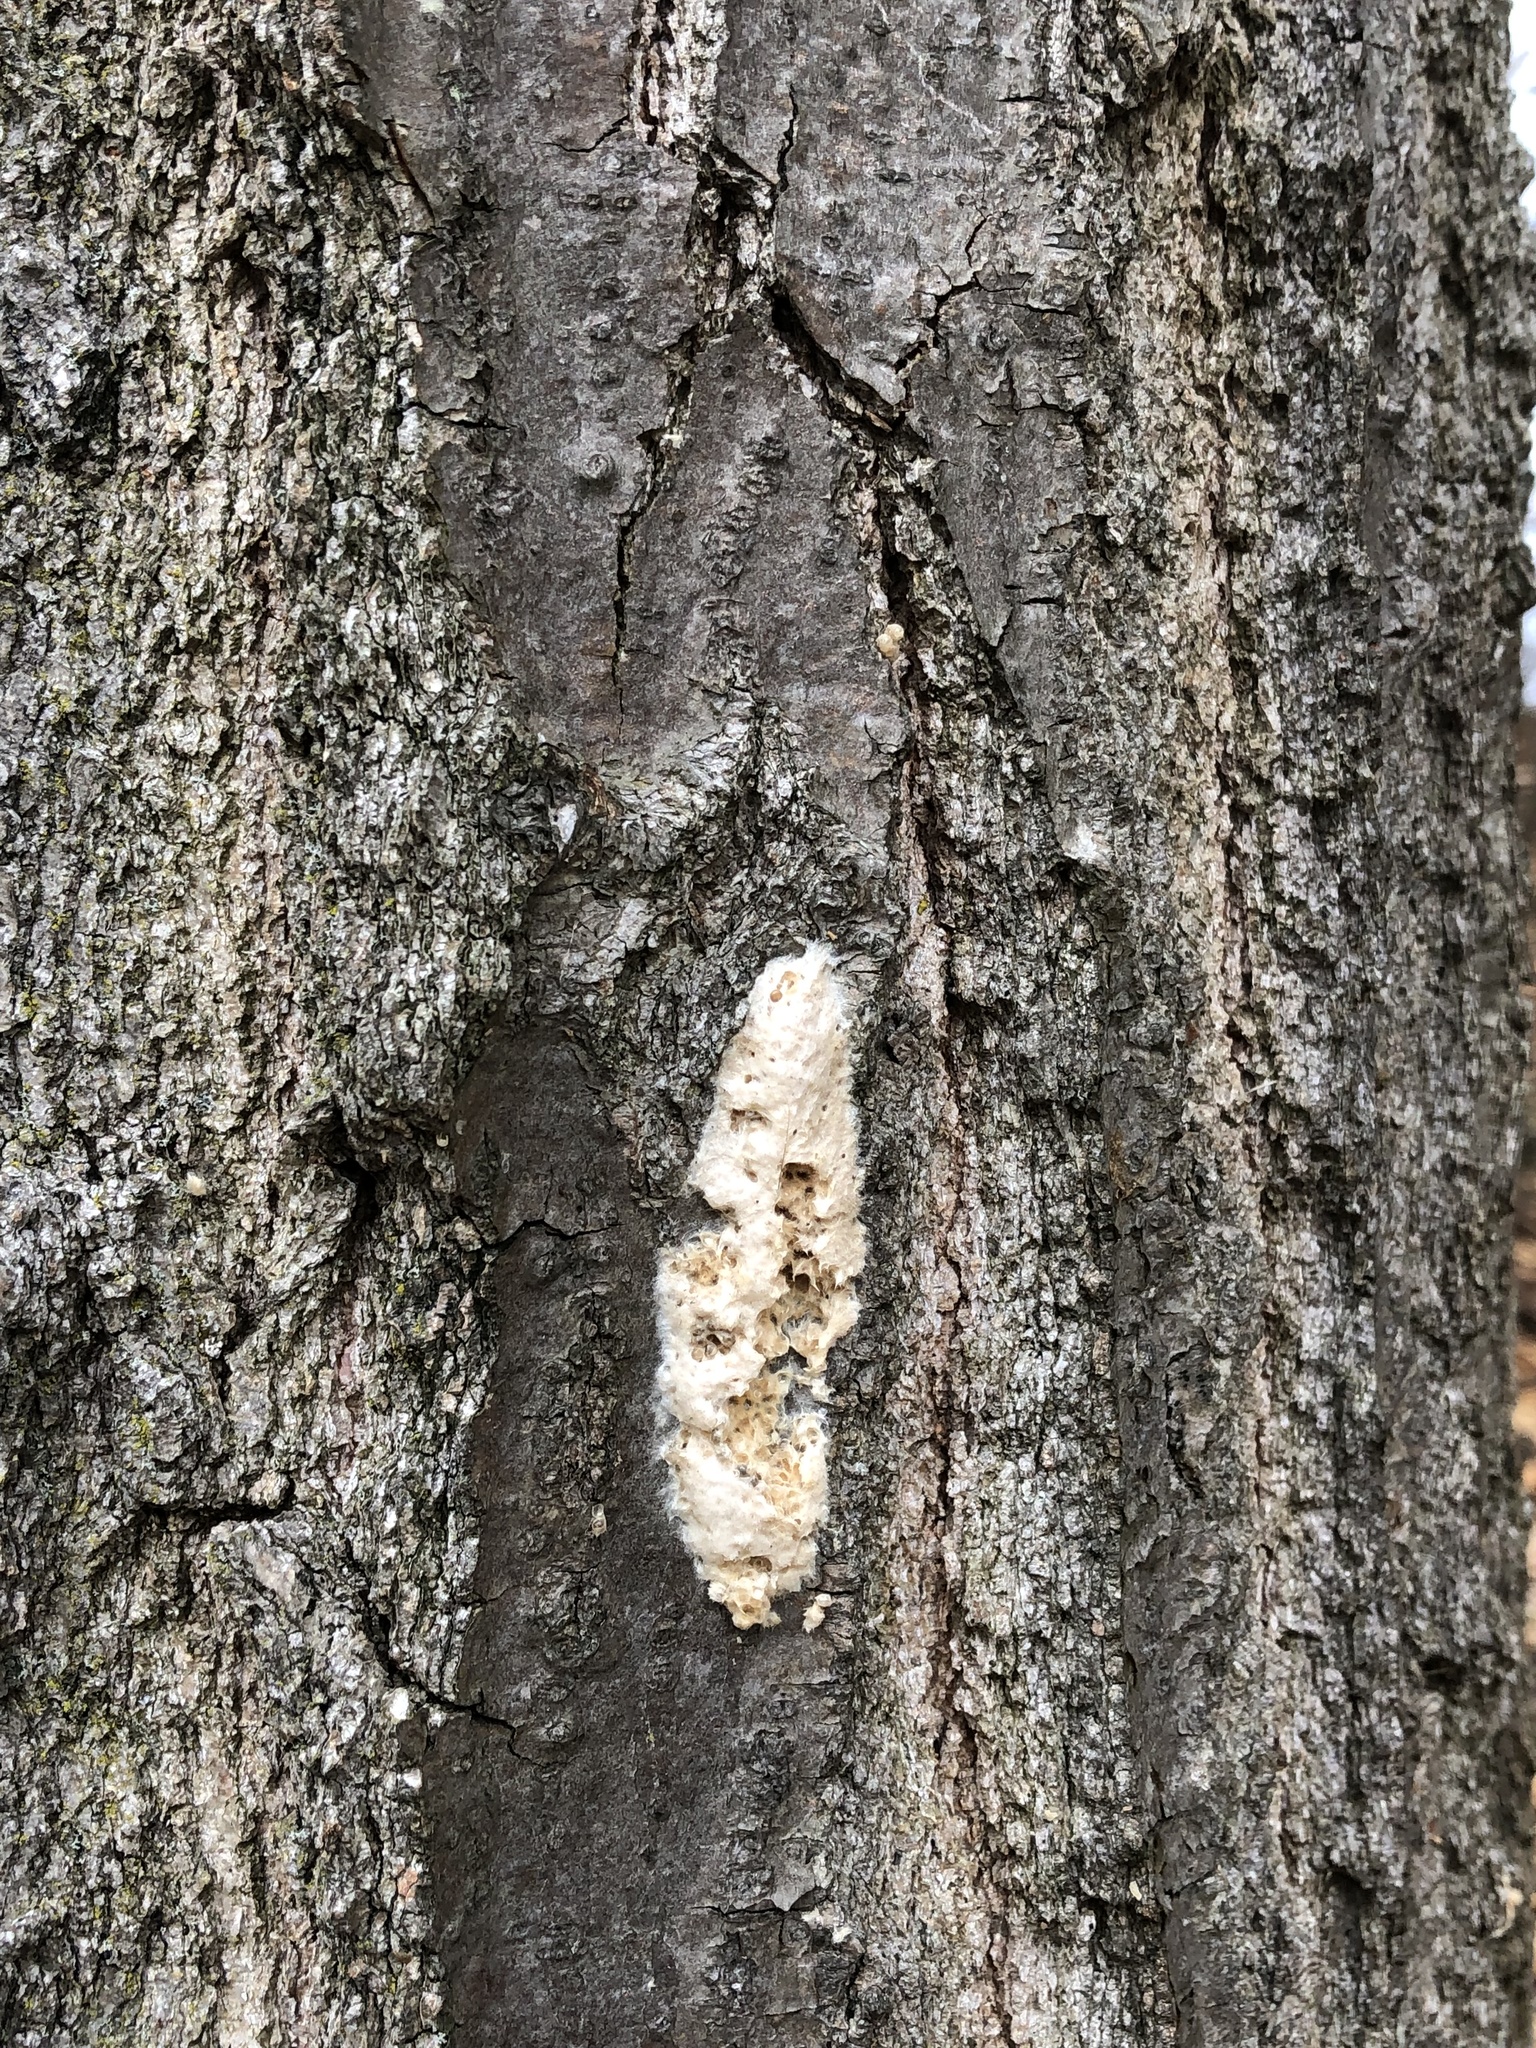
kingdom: Animalia
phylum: Arthropoda
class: Insecta
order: Lepidoptera
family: Erebidae
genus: Lymantria
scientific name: Lymantria dispar
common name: Gypsy moth
